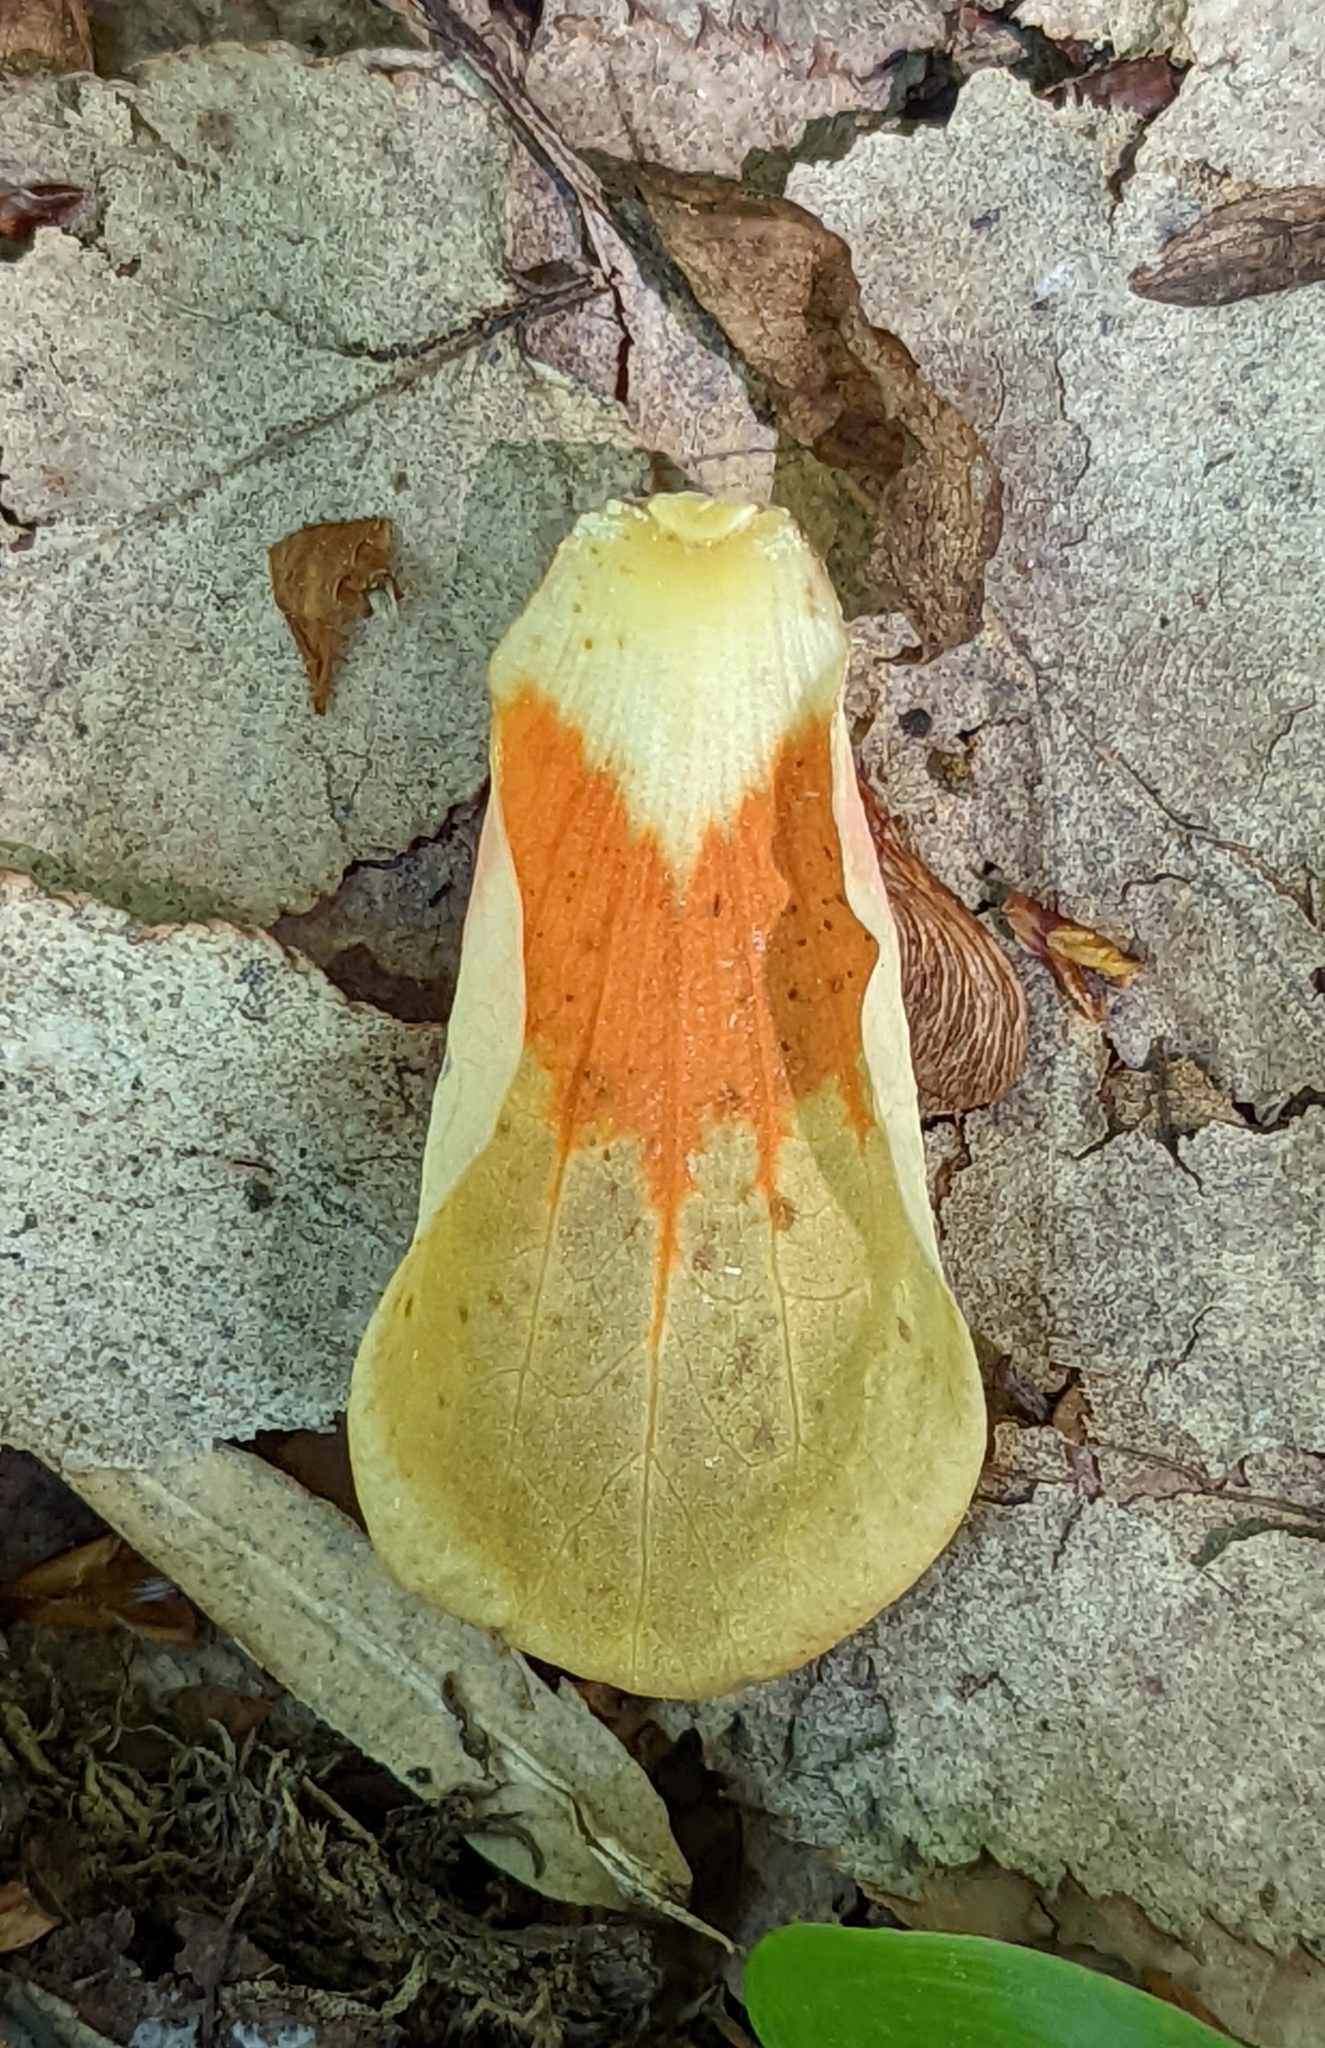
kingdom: Plantae
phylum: Tracheophyta
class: Magnoliopsida
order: Magnoliales
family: Magnoliaceae
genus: Liriodendron
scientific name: Liriodendron tulipifera
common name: Tulip tree
